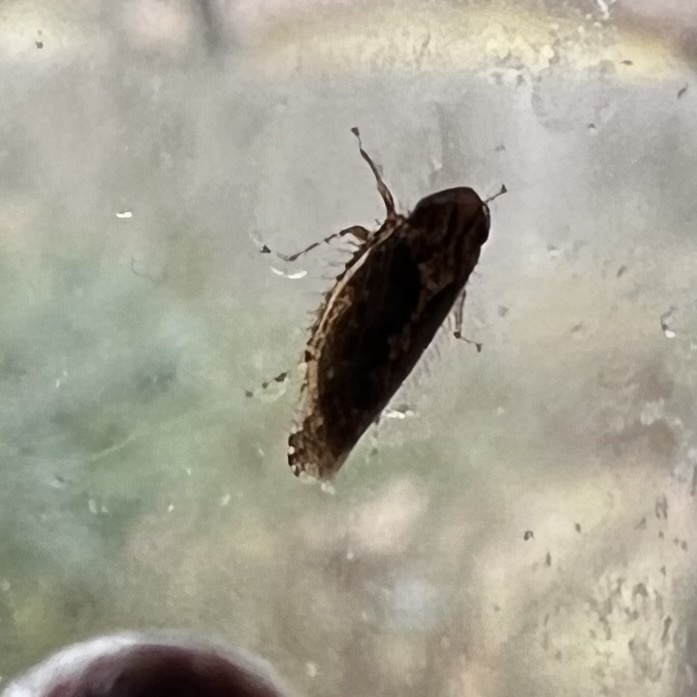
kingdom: Animalia
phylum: Arthropoda
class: Insecta
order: Hemiptera
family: Cicadellidae
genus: Excultanus
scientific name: Excultanus excultus
